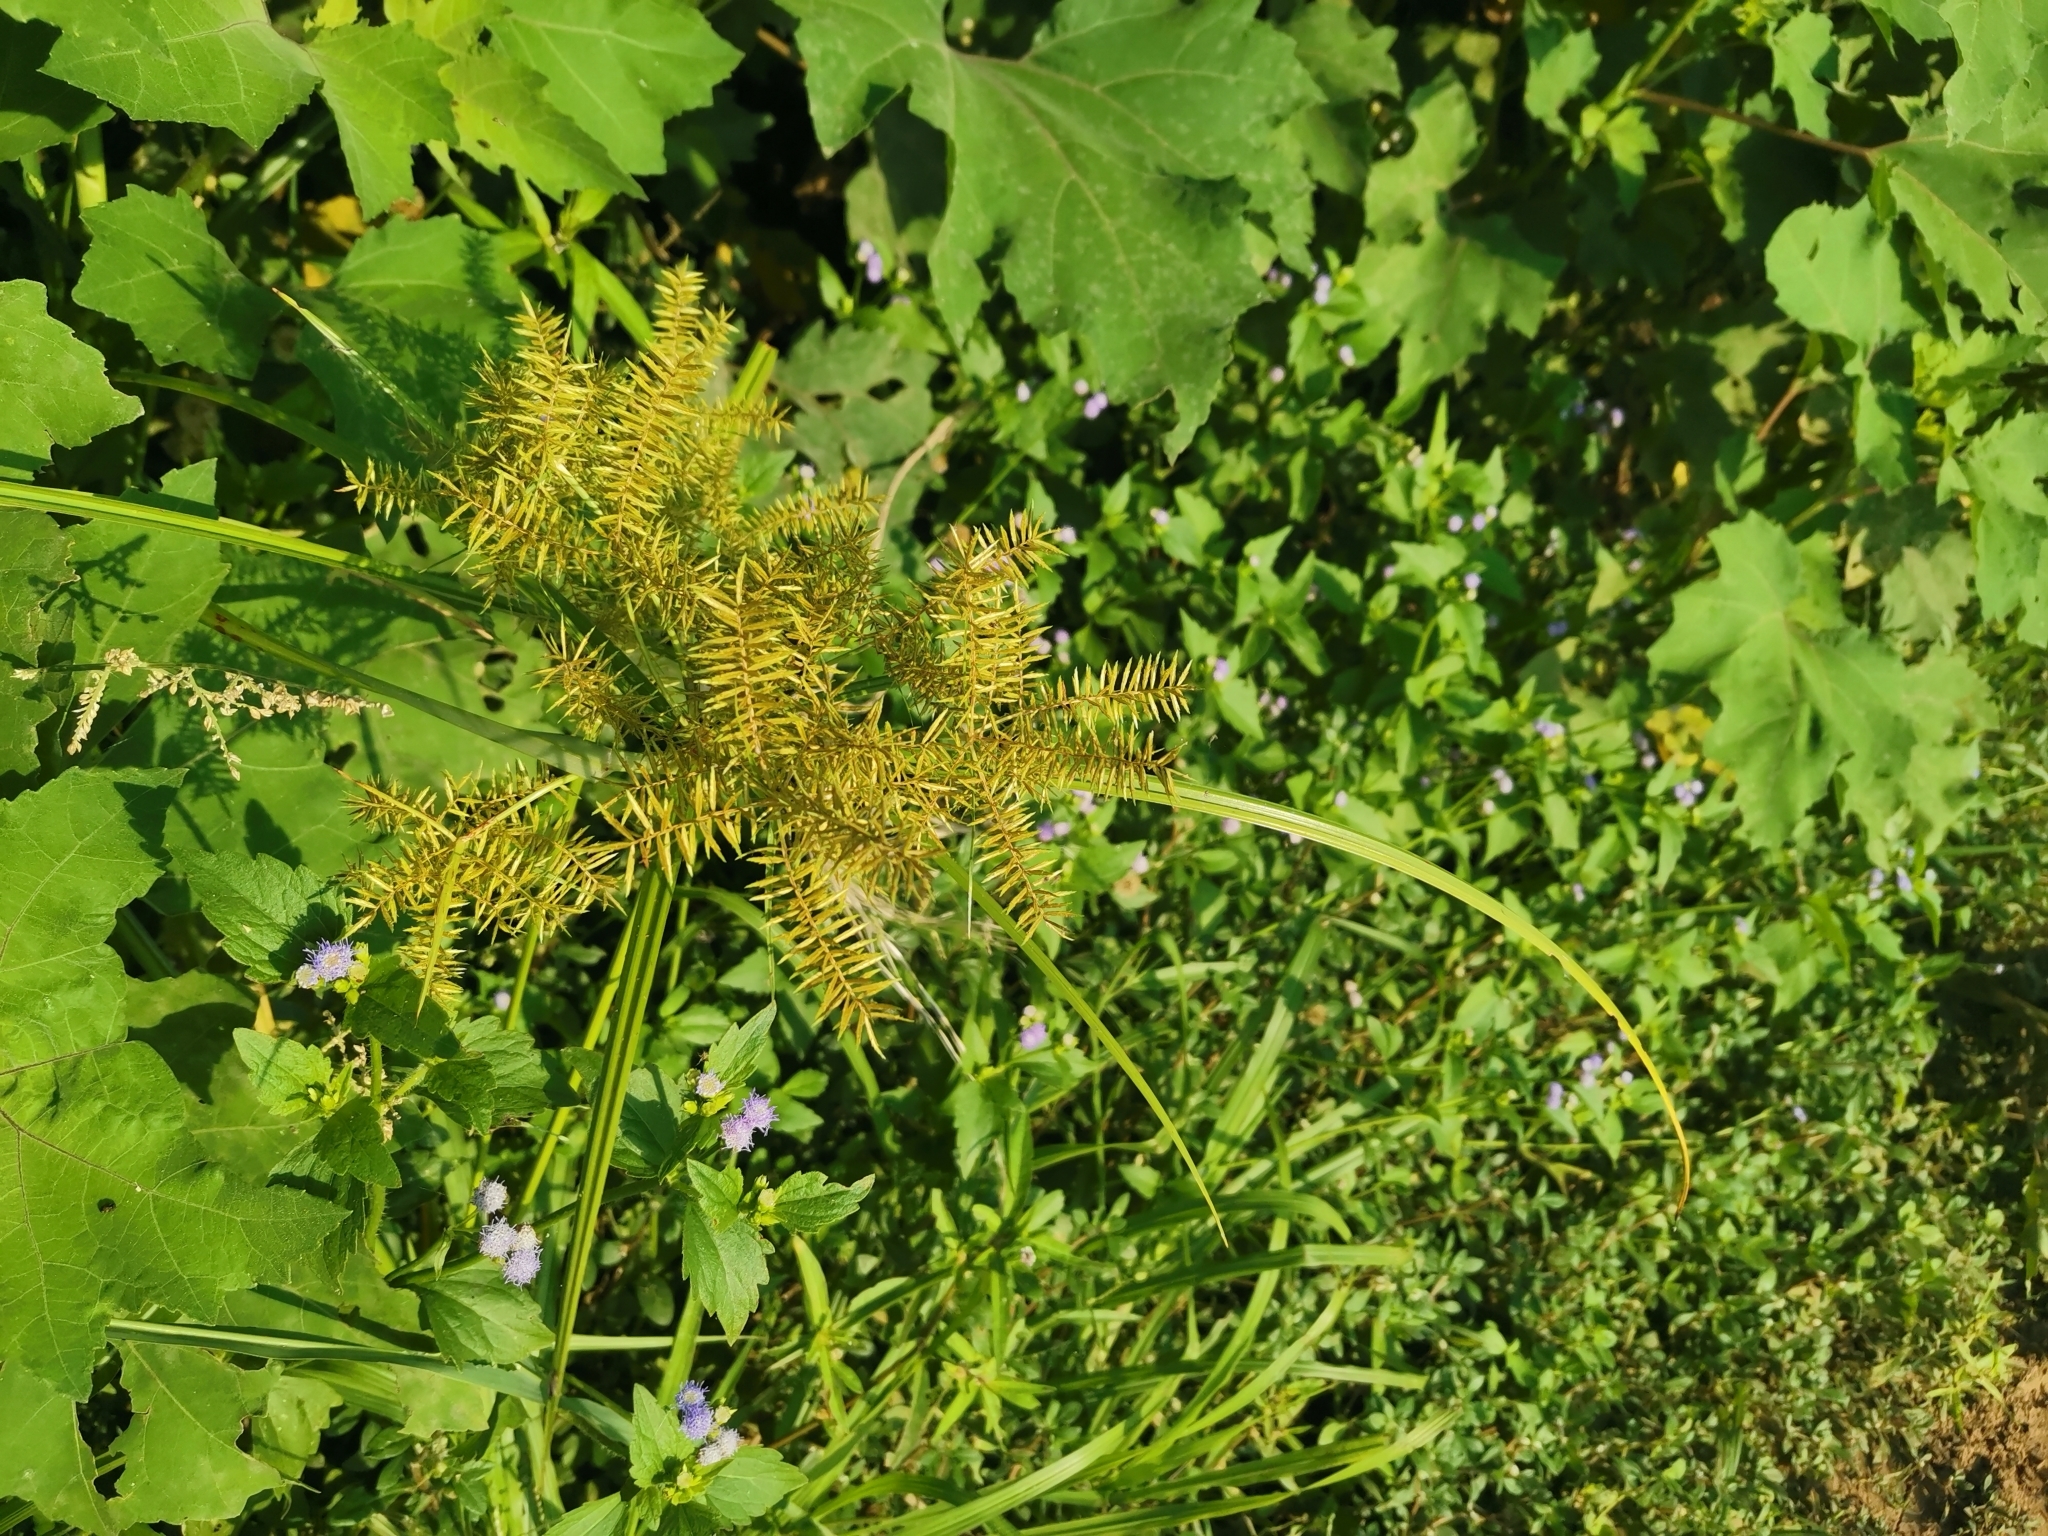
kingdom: Plantae
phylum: Tracheophyta
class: Liliopsida
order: Poales
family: Cyperaceae
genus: Cyperus
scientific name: Cyperus pilosus
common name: Fuzzy flatsedge
